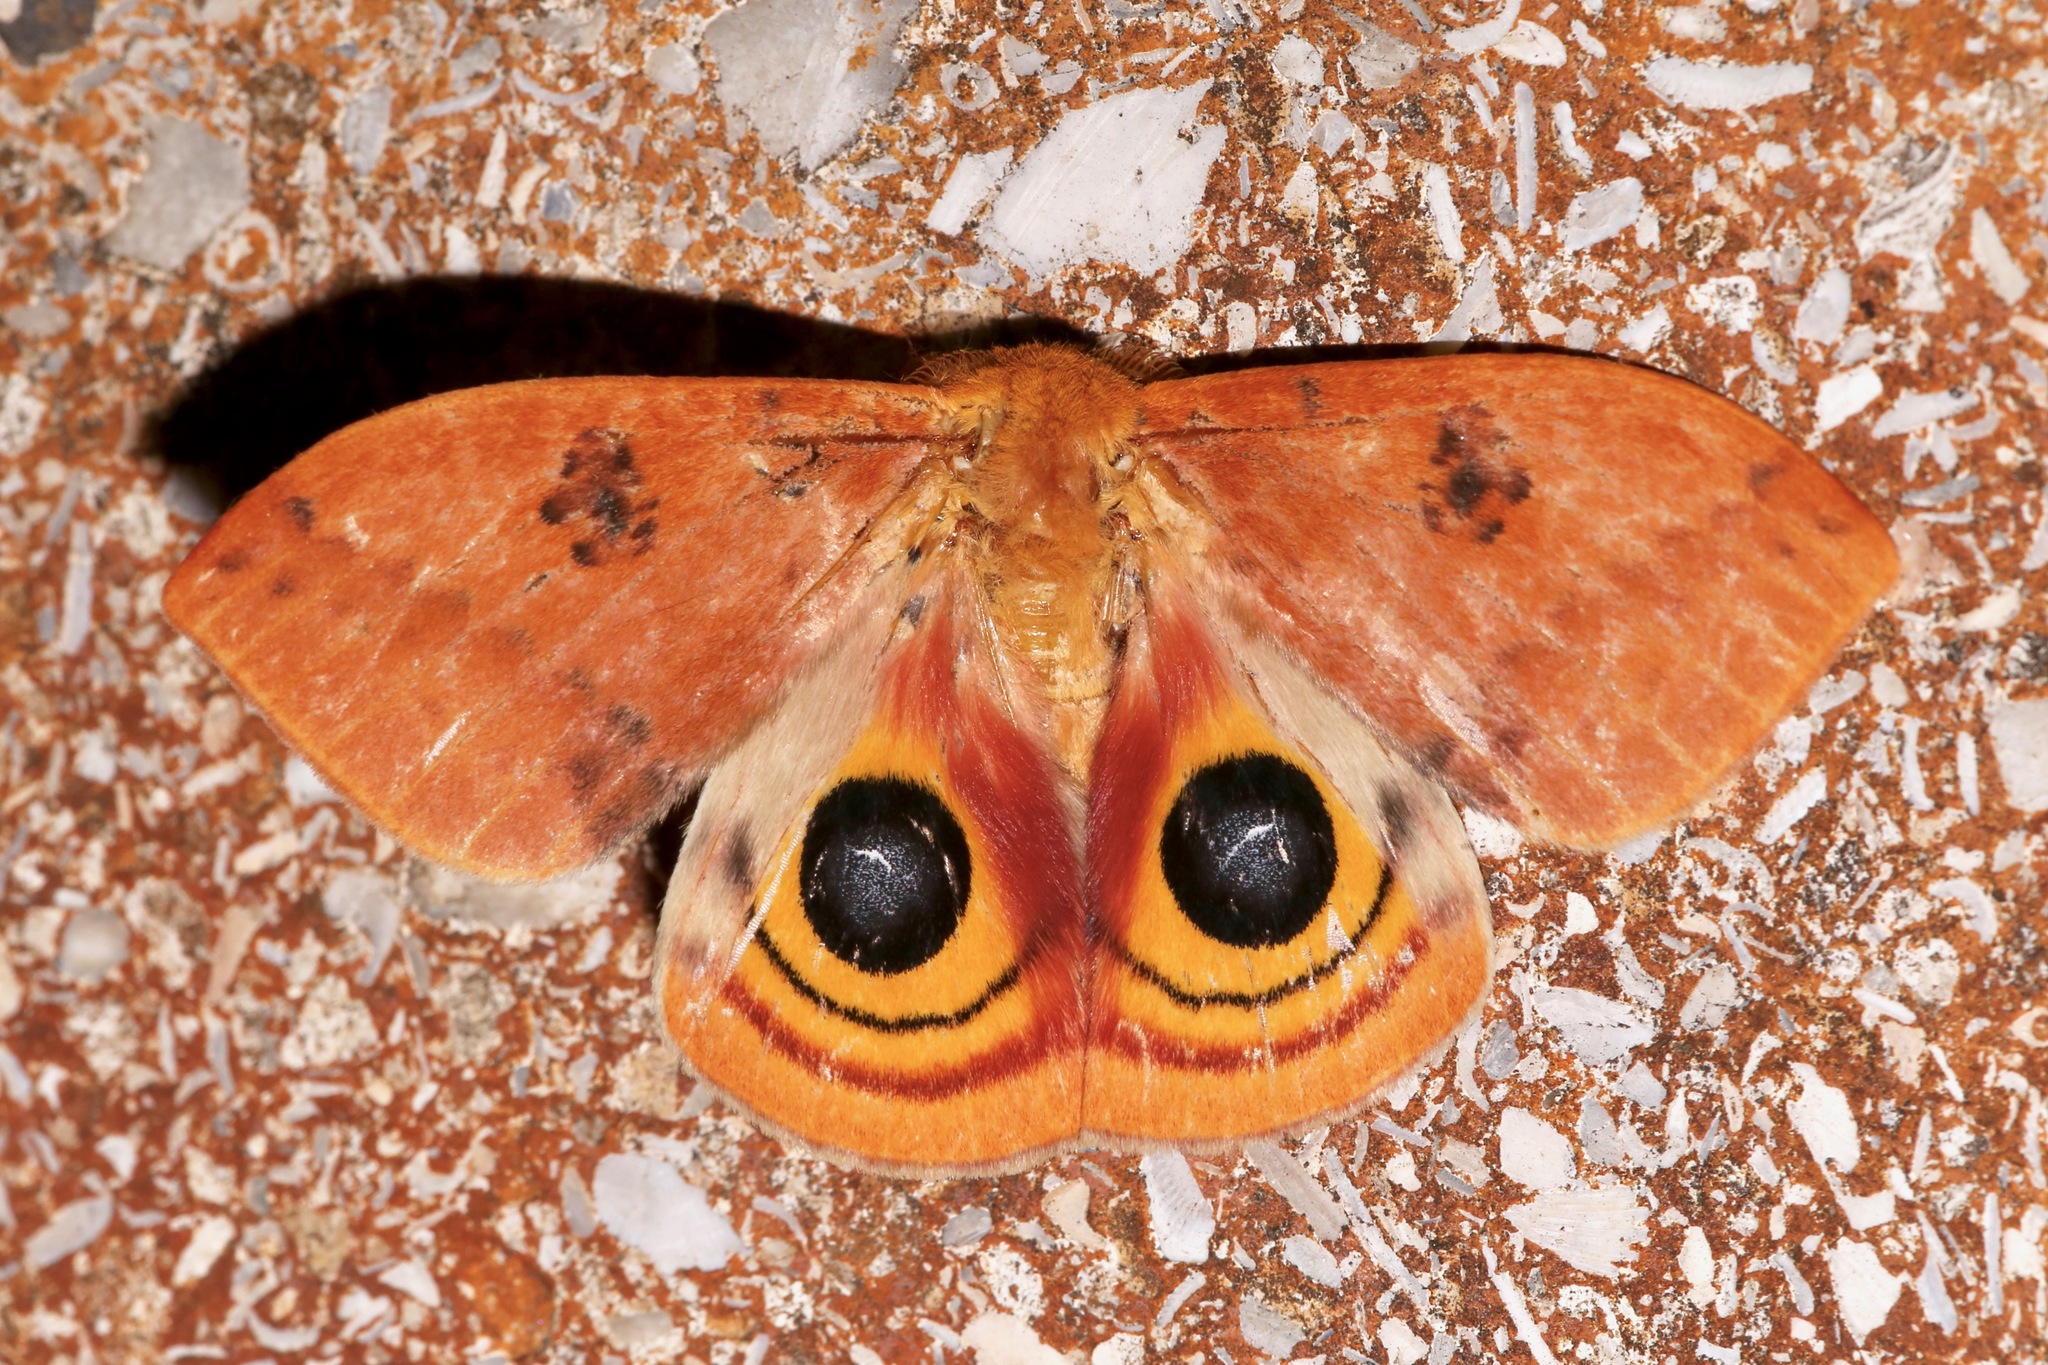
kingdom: Animalia
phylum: Arthropoda
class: Insecta
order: Lepidoptera
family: Saturniidae
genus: Automeris
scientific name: Automeris io
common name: Io moth
